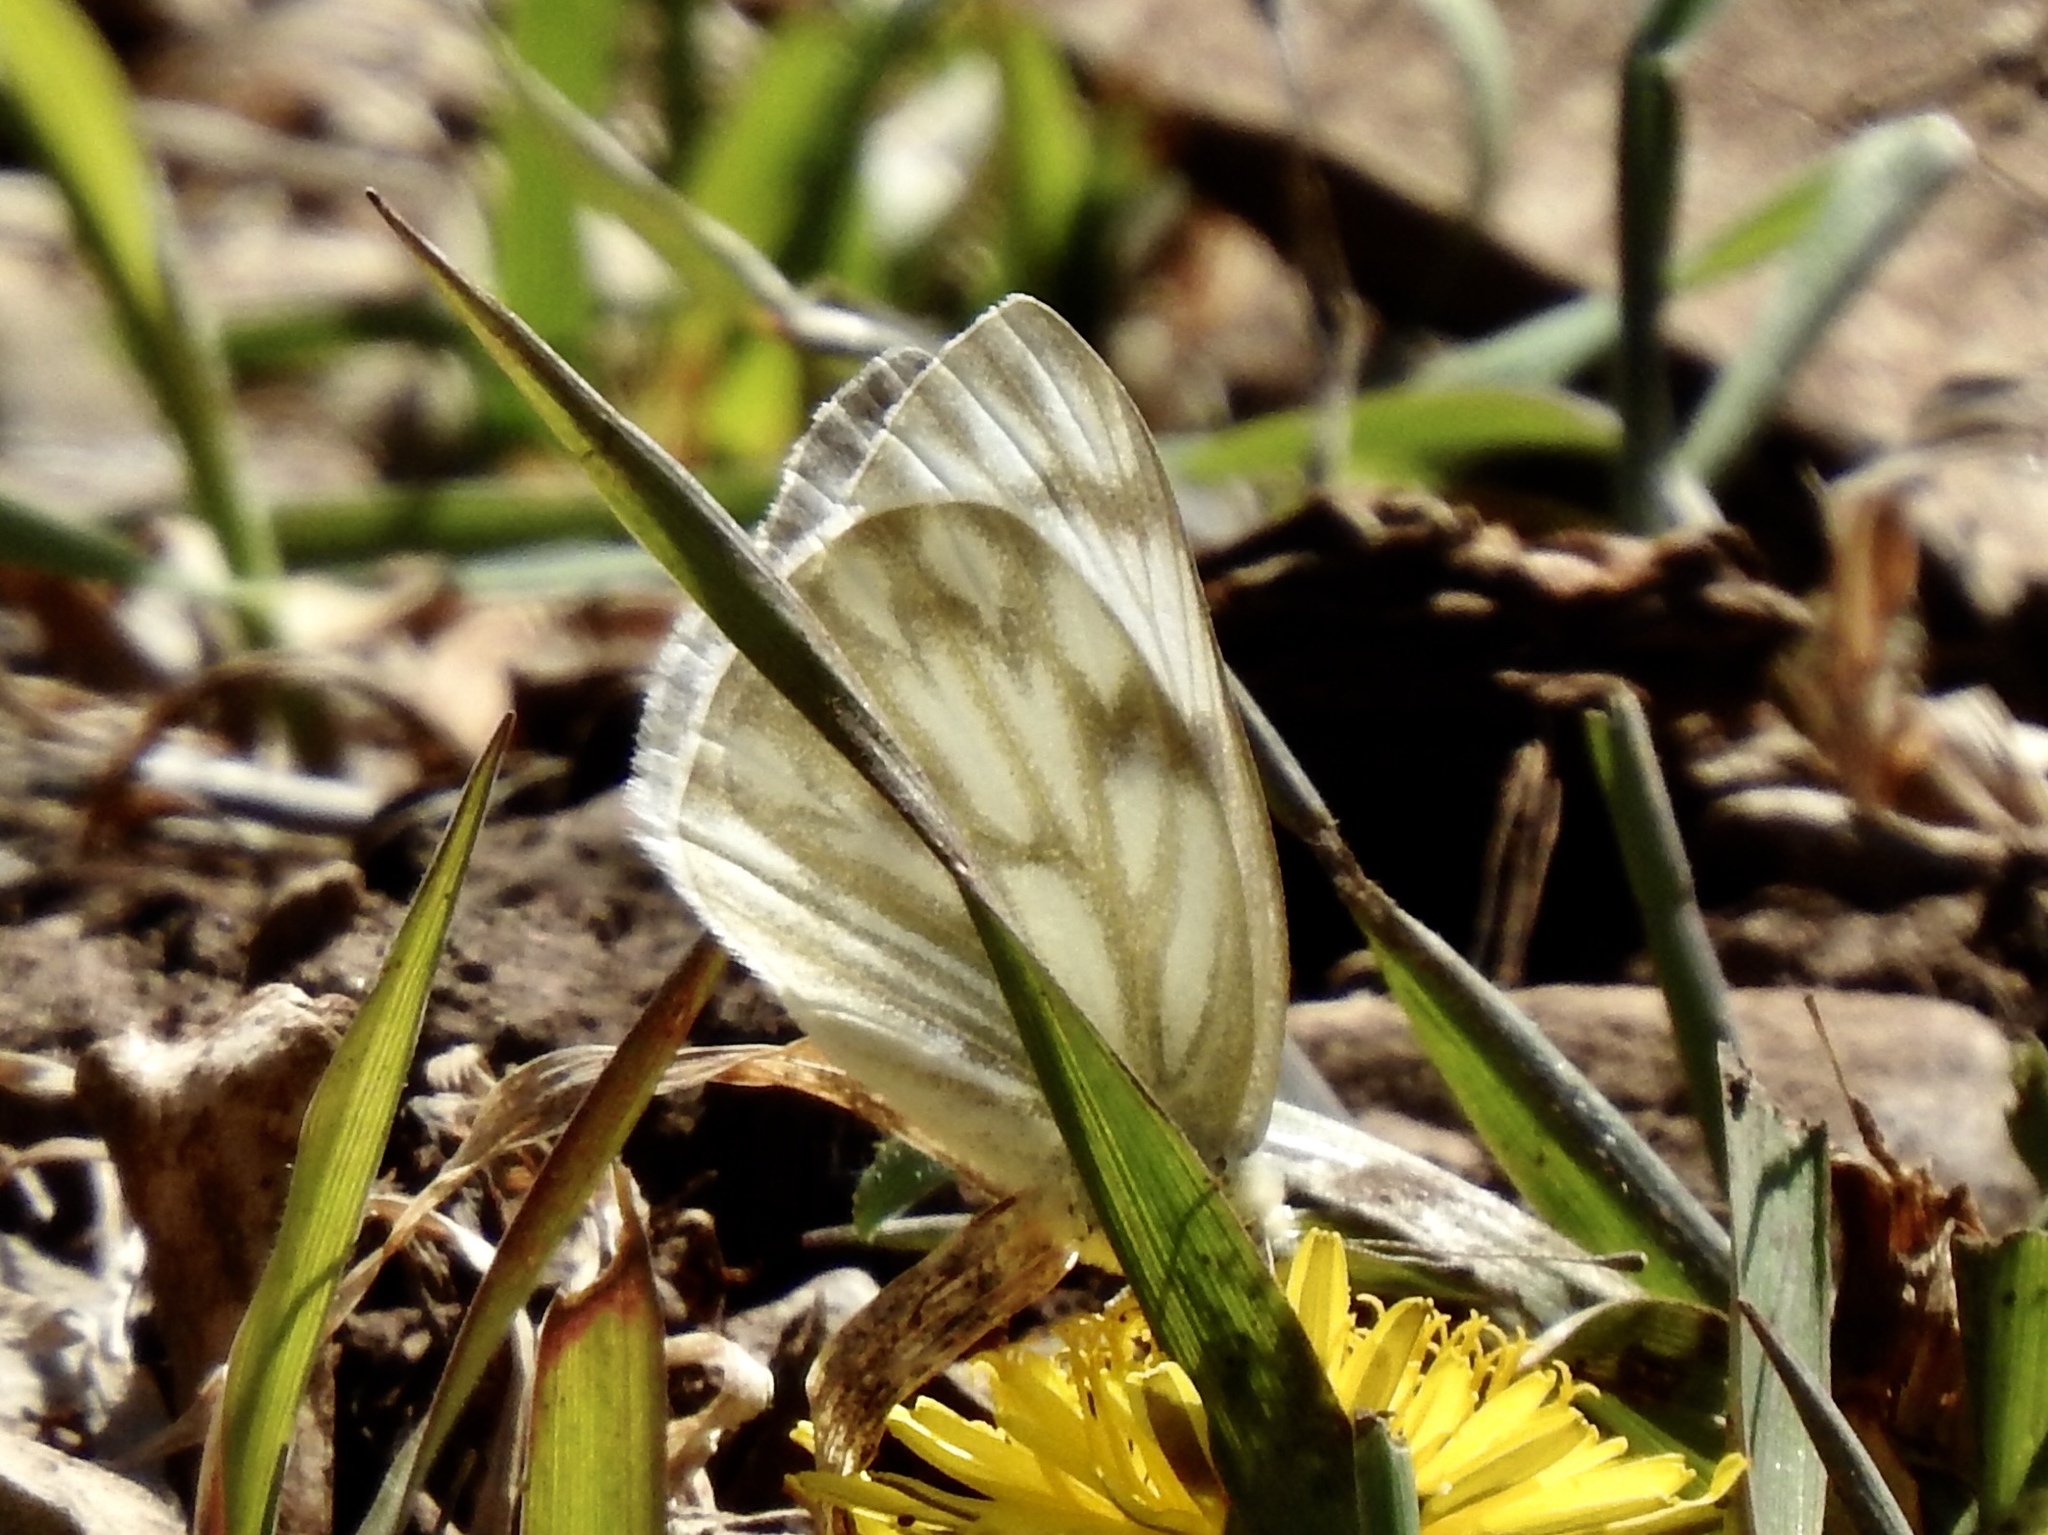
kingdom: Animalia
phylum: Arthropoda
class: Insecta
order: Lepidoptera
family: Pieridae
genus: Pontia
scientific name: Pontia protodice
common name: Checkered white
